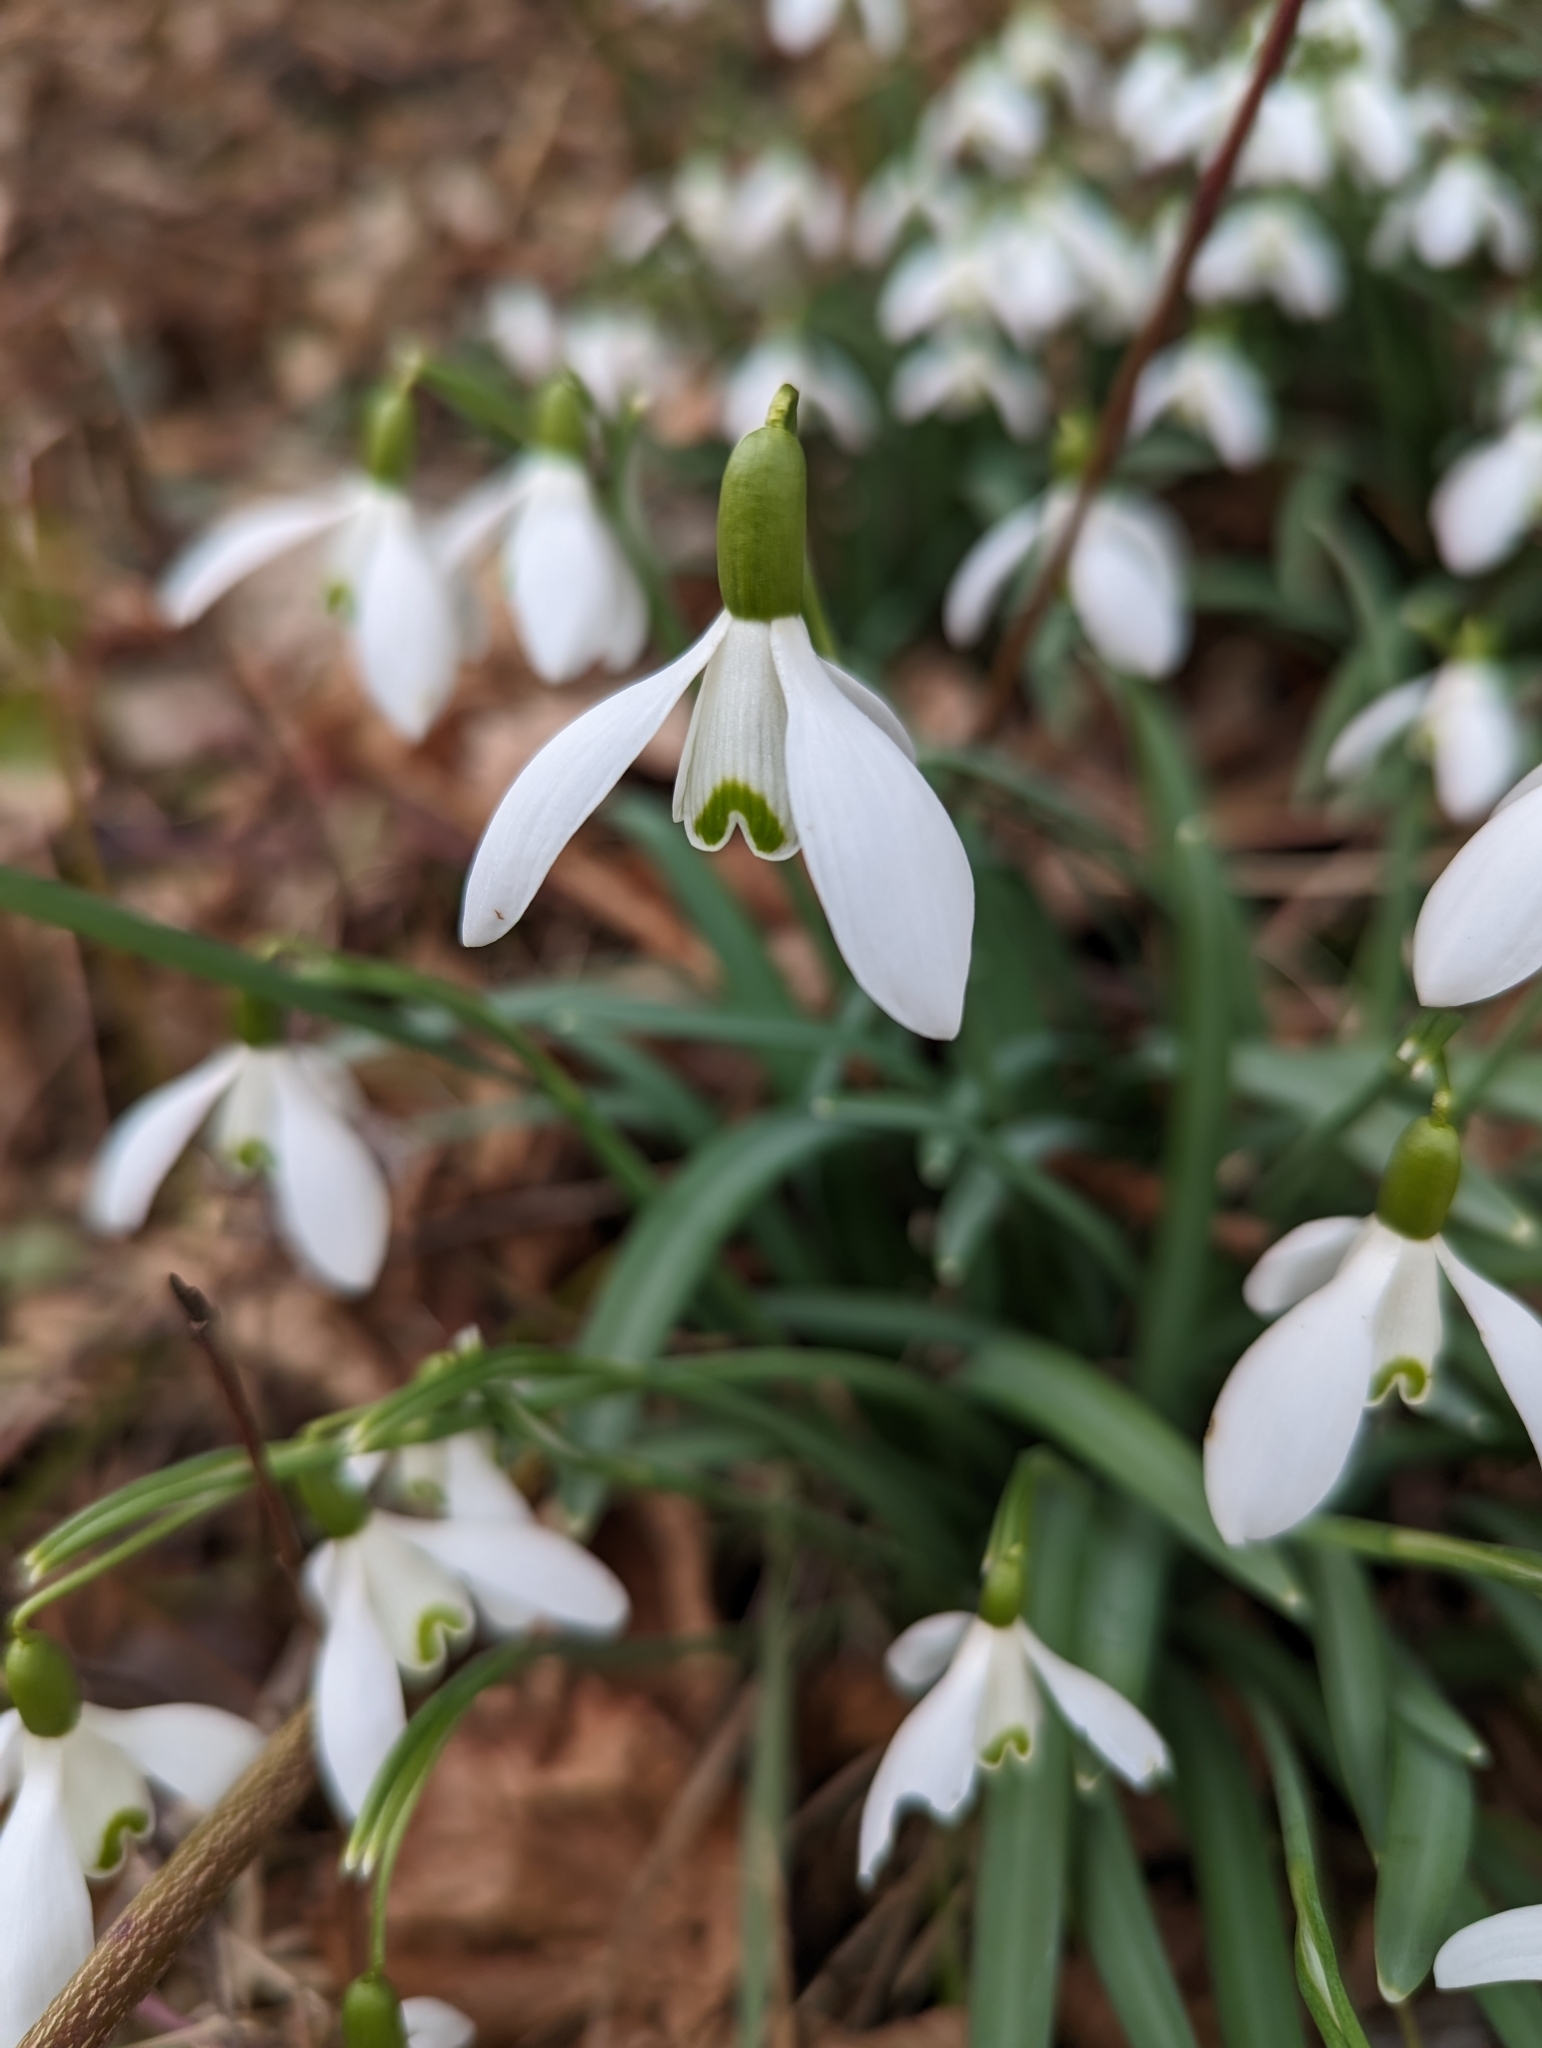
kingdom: Plantae
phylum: Tracheophyta
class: Liliopsida
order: Asparagales
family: Amaryllidaceae
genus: Galanthus
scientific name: Galanthus nivalis
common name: Snowdrop
